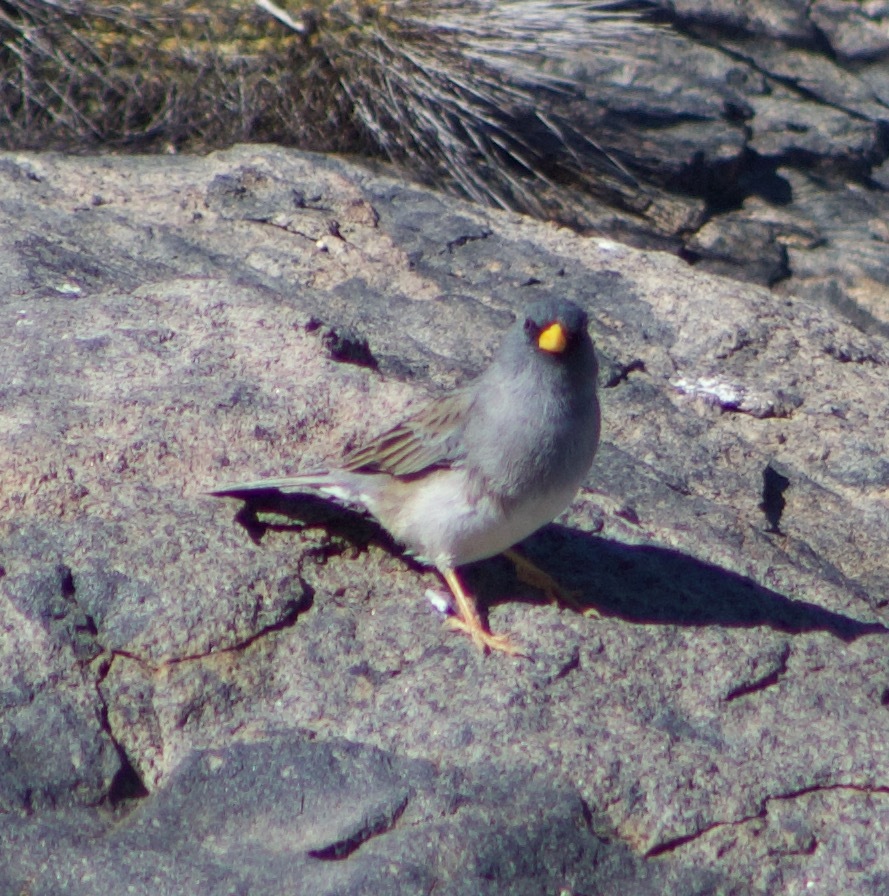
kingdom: Animalia
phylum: Chordata
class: Aves
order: Passeriformes
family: Thraupidae
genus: Porphyrospiza
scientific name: Porphyrospiza alaudina
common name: Band-tailed sierra finch
